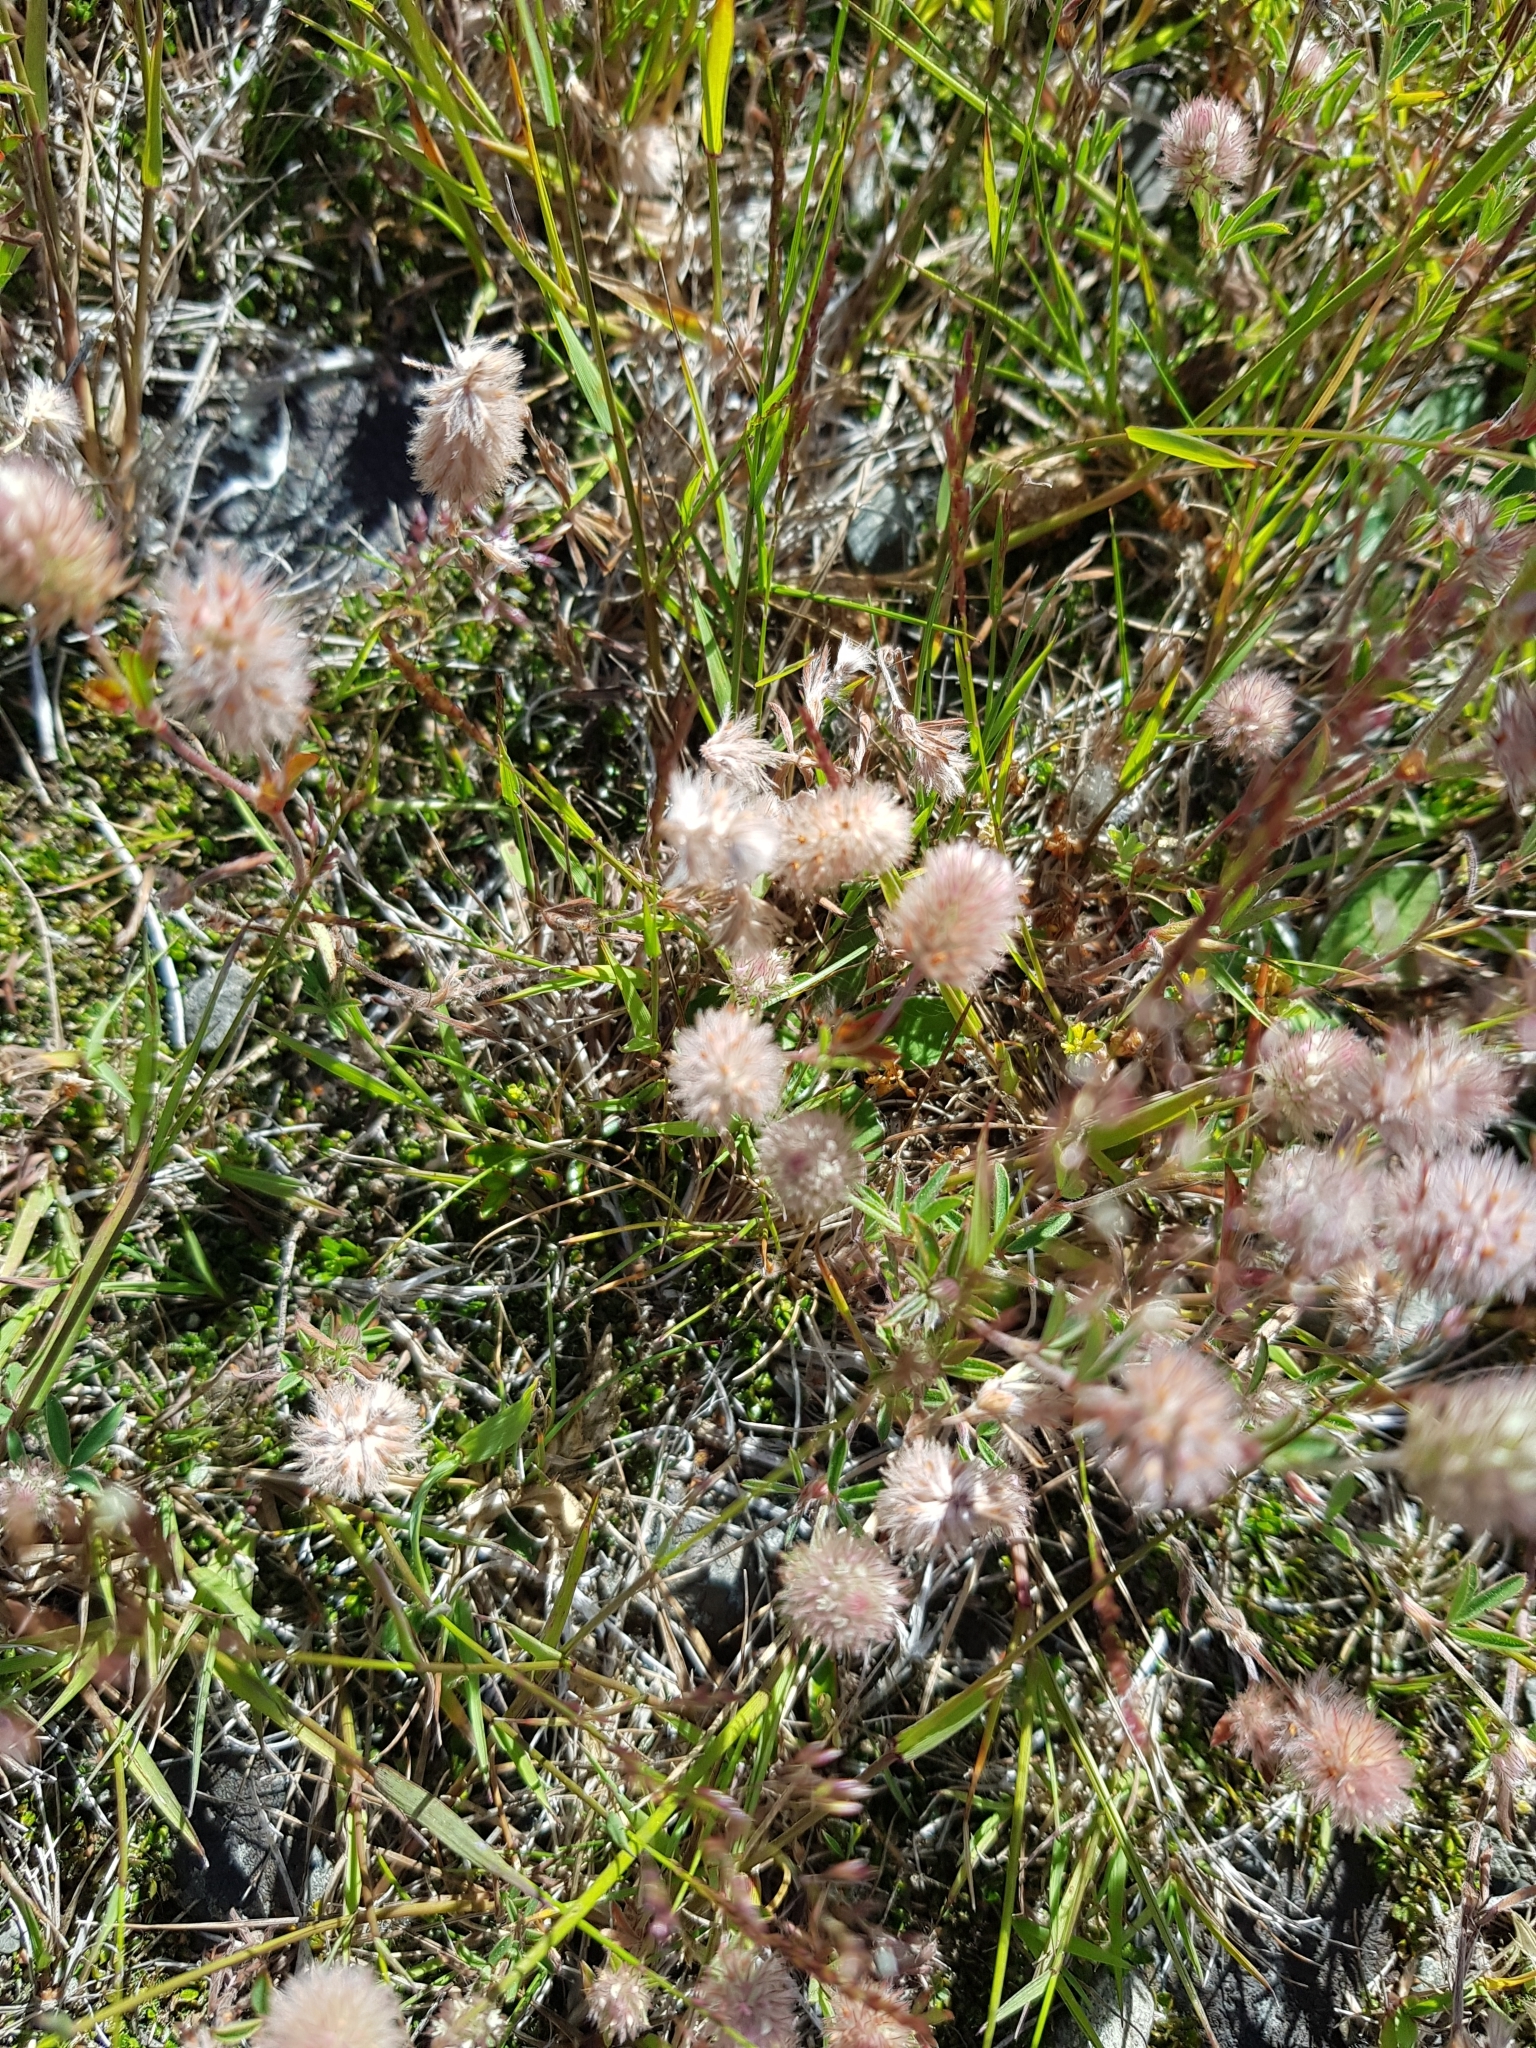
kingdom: Plantae
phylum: Tracheophyta
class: Magnoliopsida
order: Fabales
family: Fabaceae
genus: Trifolium
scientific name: Trifolium arvense
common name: Hare's-foot clover
